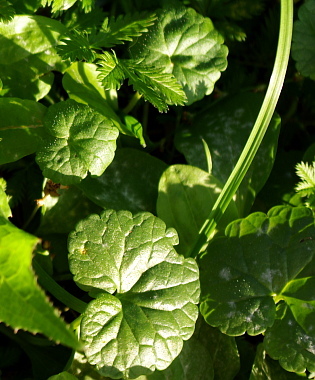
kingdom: Plantae
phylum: Tracheophyta
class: Magnoliopsida
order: Lamiales
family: Lamiaceae
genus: Glechoma
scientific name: Glechoma hederacea
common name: Ground ivy
